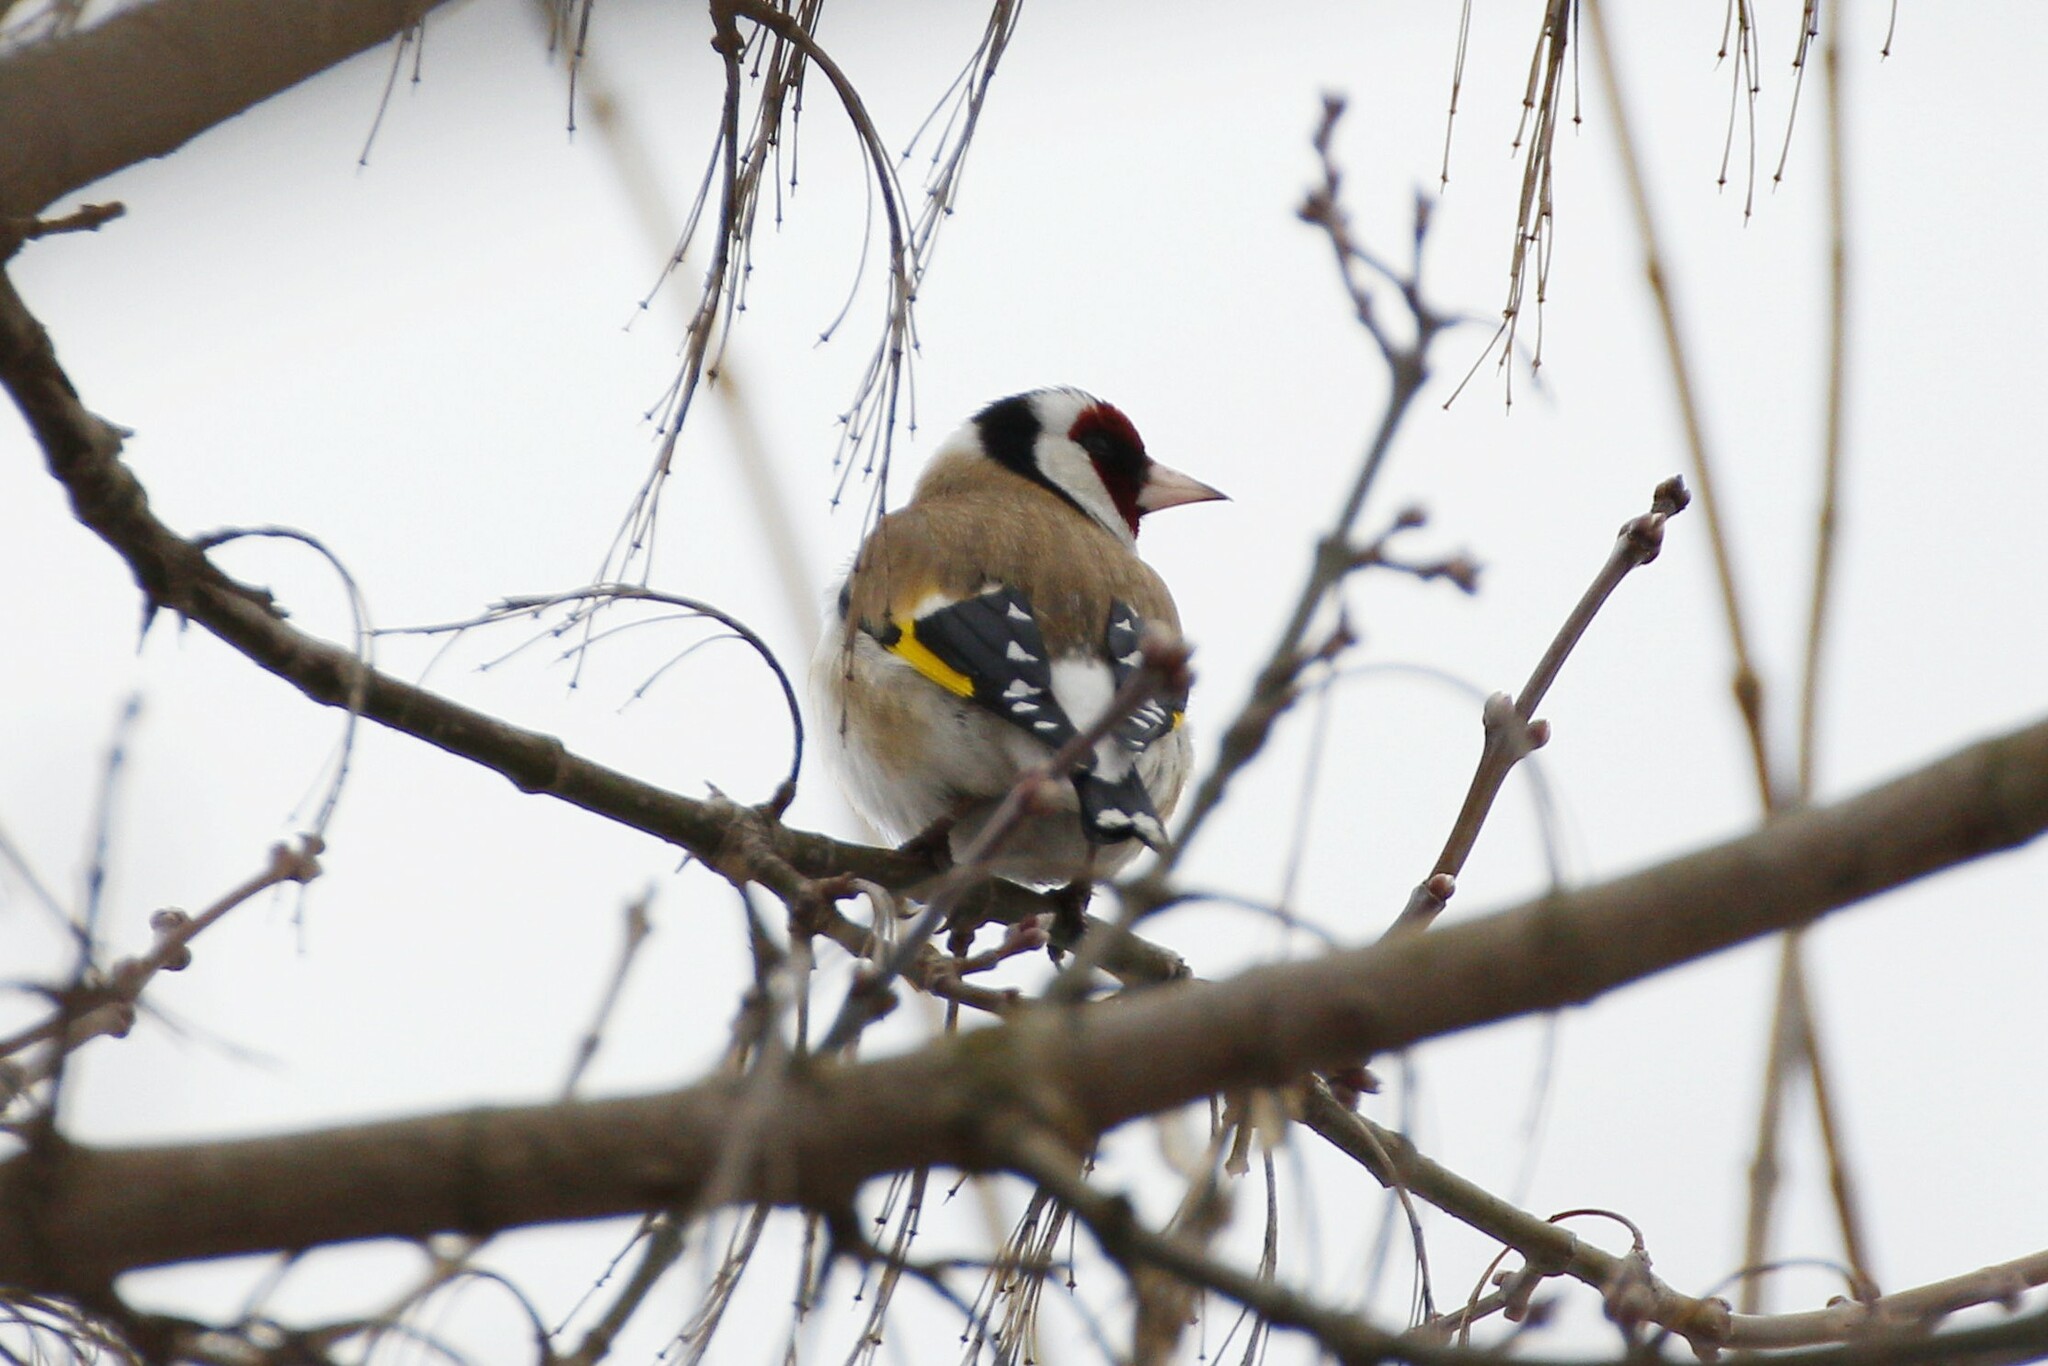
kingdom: Animalia
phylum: Chordata
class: Aves
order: Passeriformes
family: Fringillidae
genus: Carduelis
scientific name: Carduelis carduelis
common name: European goldfinch
